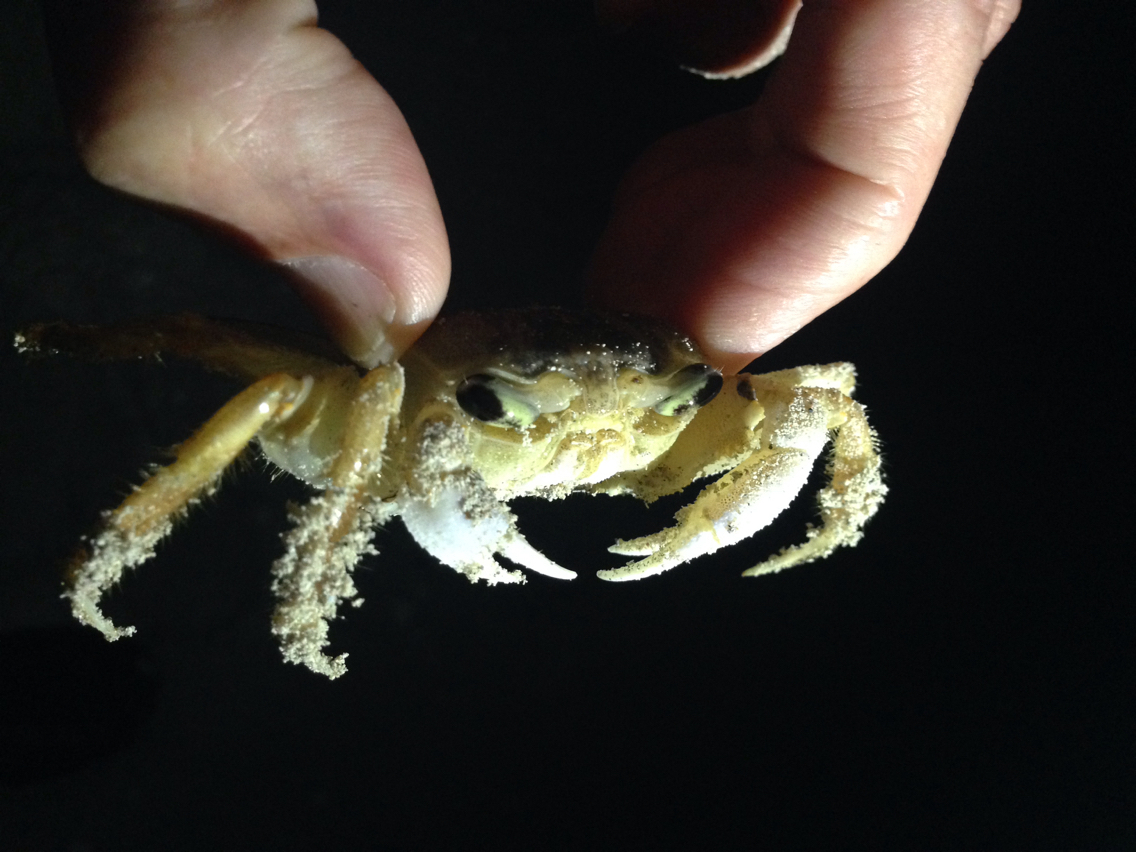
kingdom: Animalia
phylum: Arthropoda
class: Malacostraca
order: Decapoda
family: Ocypodidae
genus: Ocypode
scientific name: Ocypode quadrata
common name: Ghost crab
